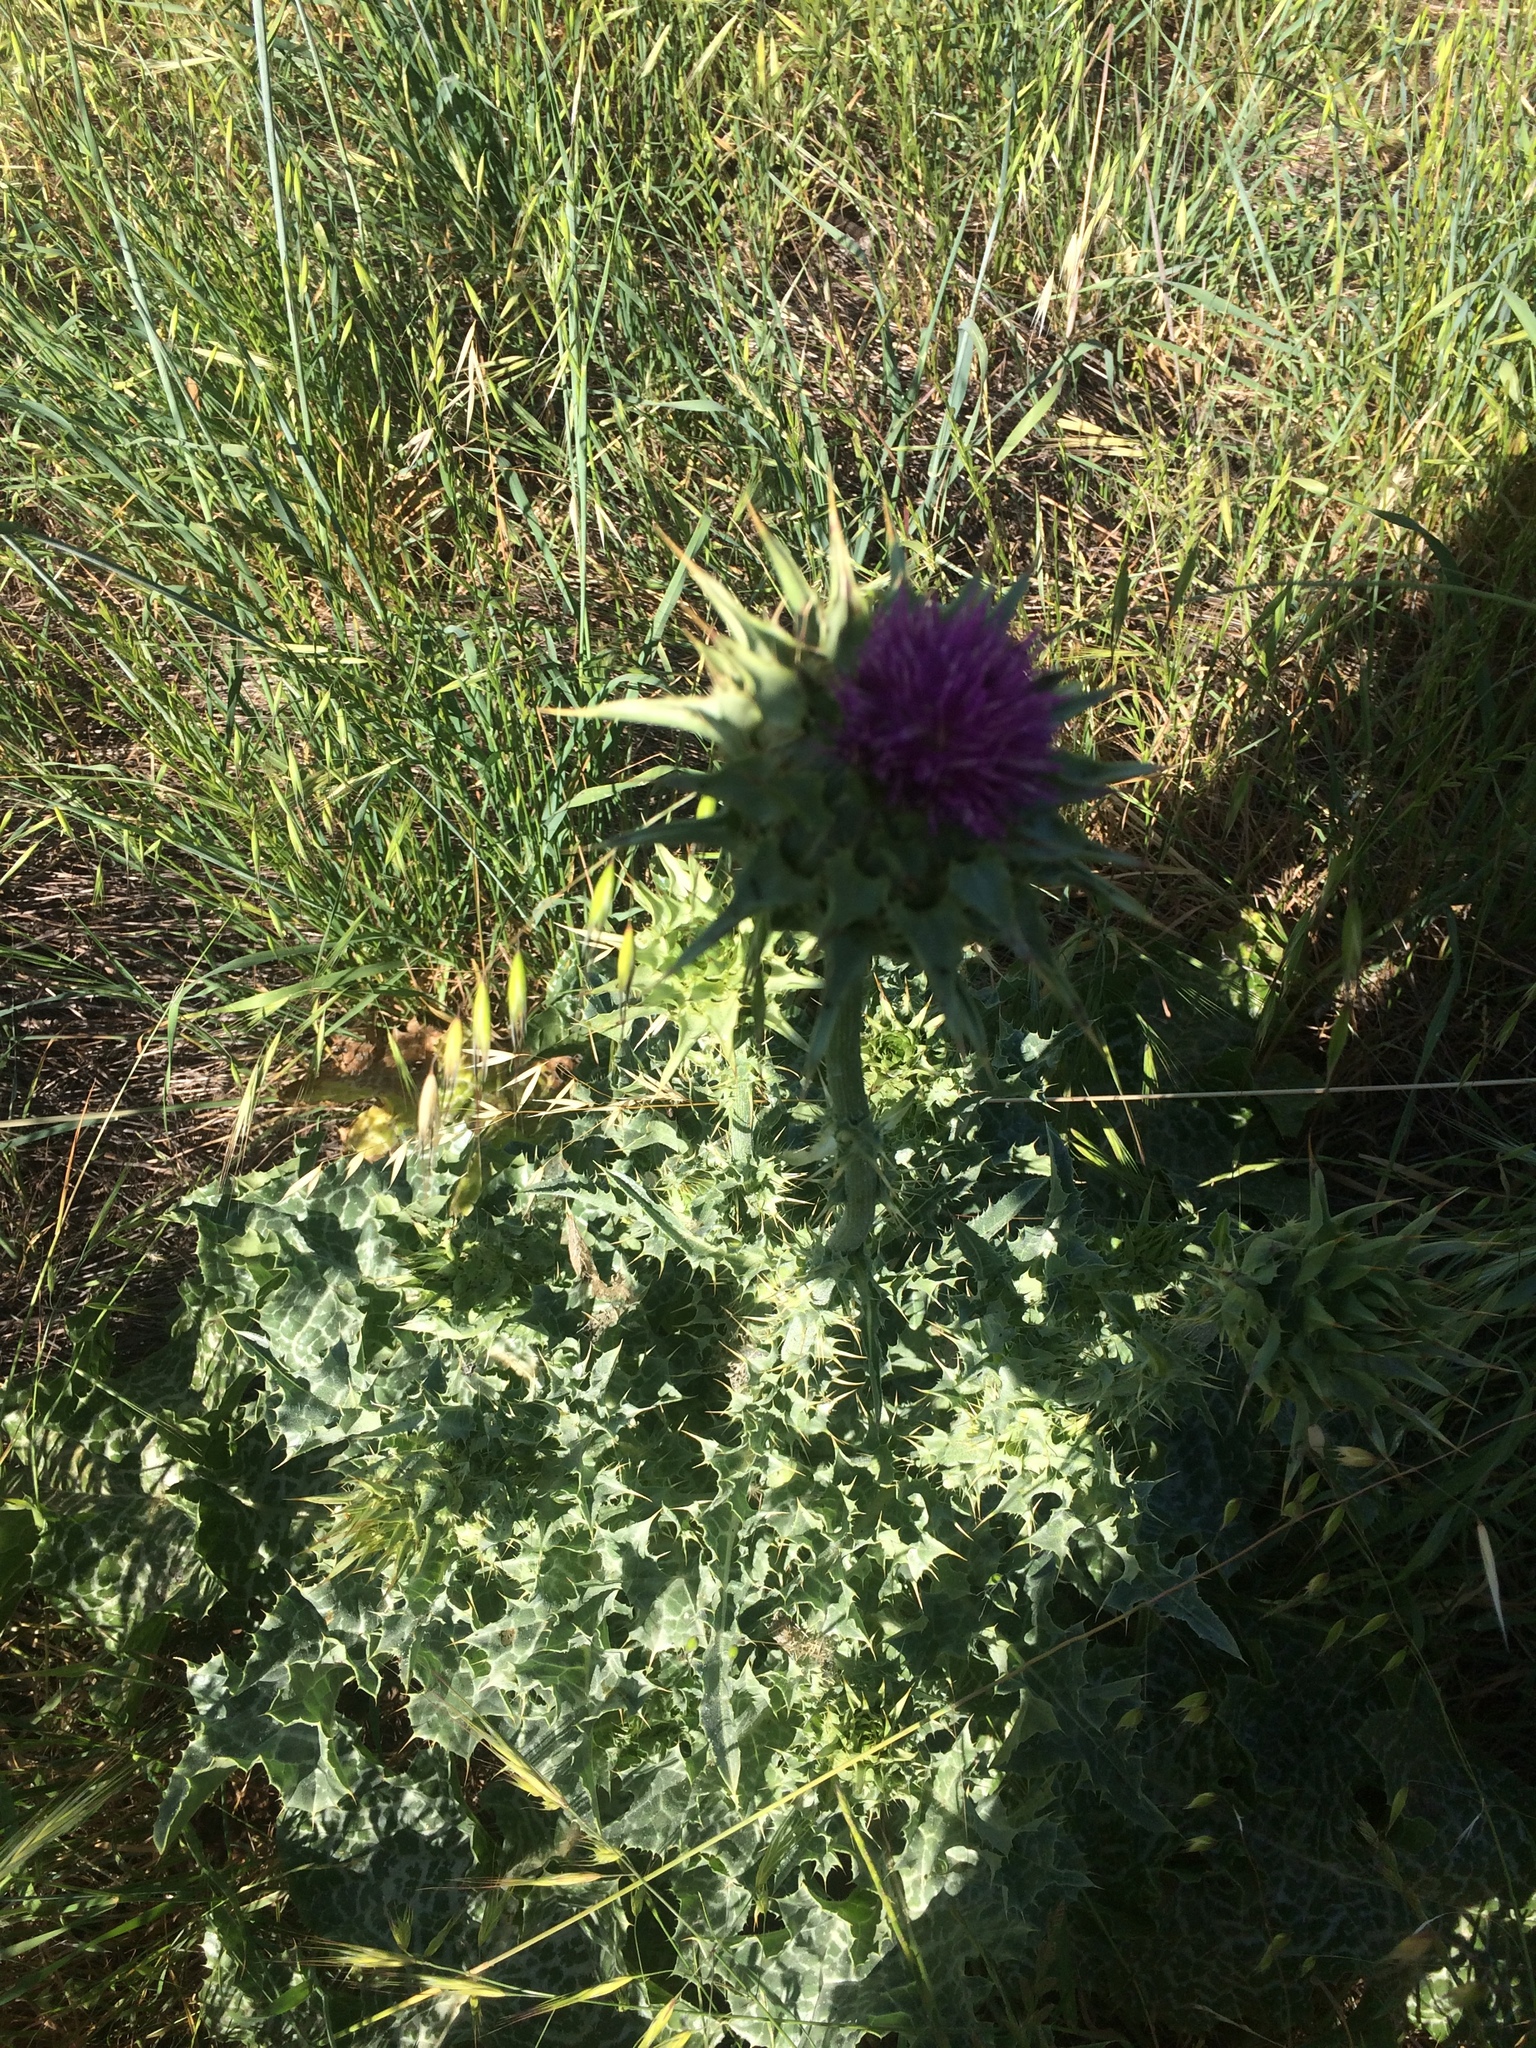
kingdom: Plantae
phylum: Tracheophyta
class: Magnoliopsida
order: Asterales
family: Asteraceae
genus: Silybum
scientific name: Silybum marianum
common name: Milk thistle
